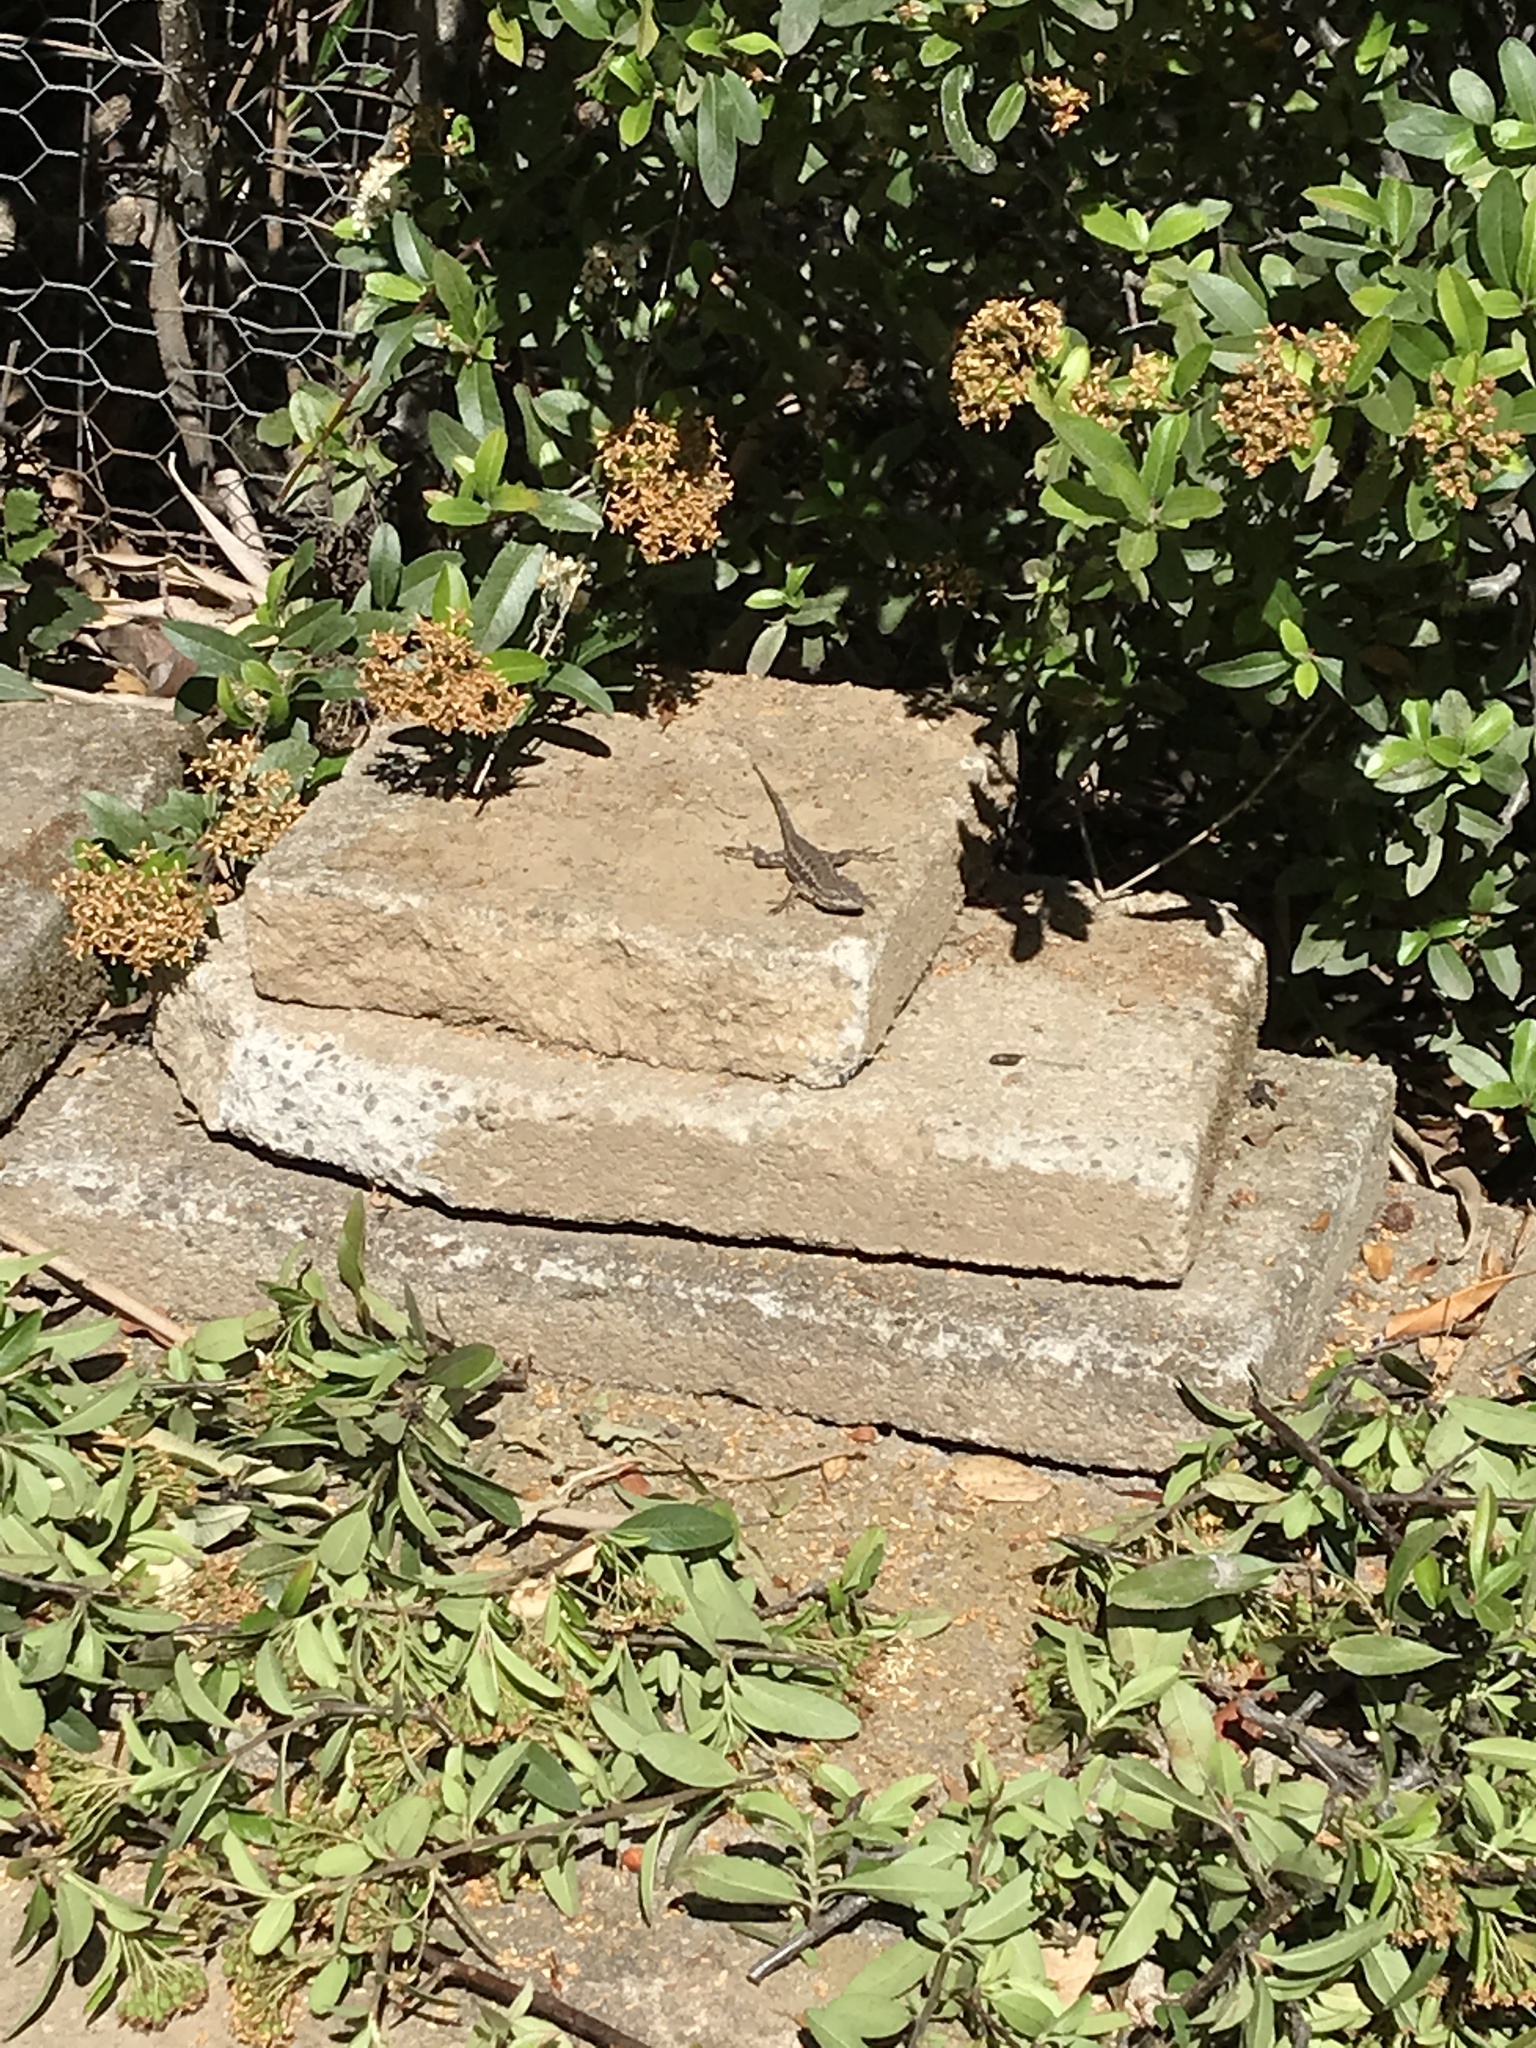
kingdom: Animalia
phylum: Chordata
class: Squamata
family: Phrynosomatidae
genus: Sceloporus
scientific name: Sceloporus occidentalis
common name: Western fence lizard
